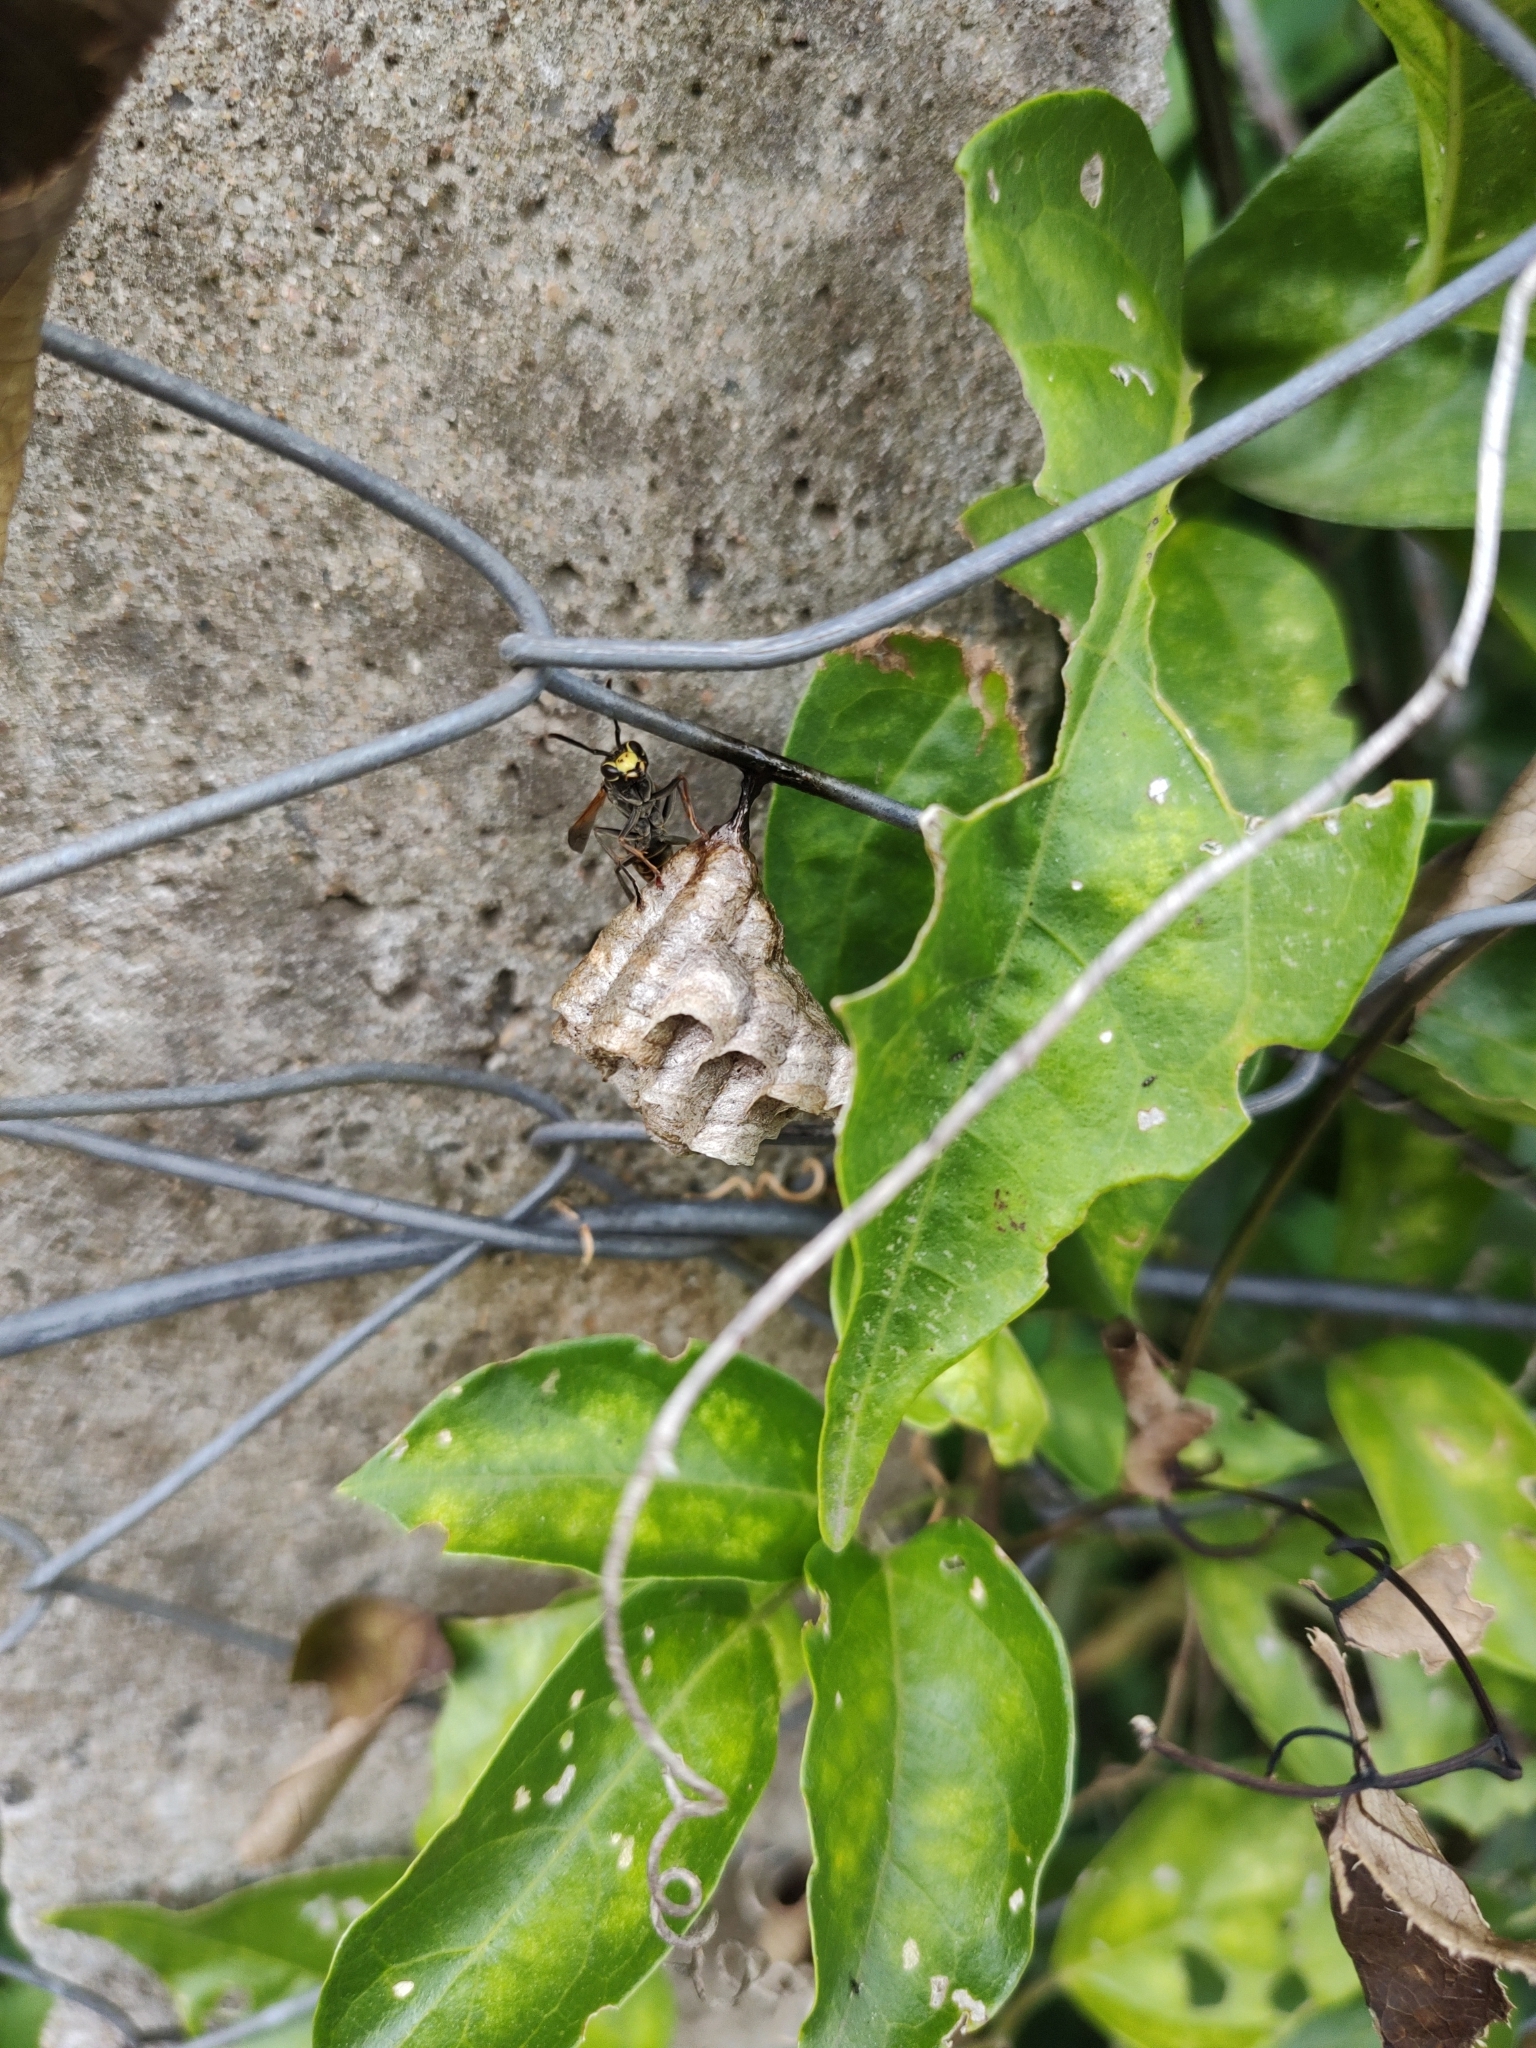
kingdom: Animalia
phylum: Arthropoda
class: Insecta
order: Hymenoptera
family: Eumenidae
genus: Polistes
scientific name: Polistes cinerascens
